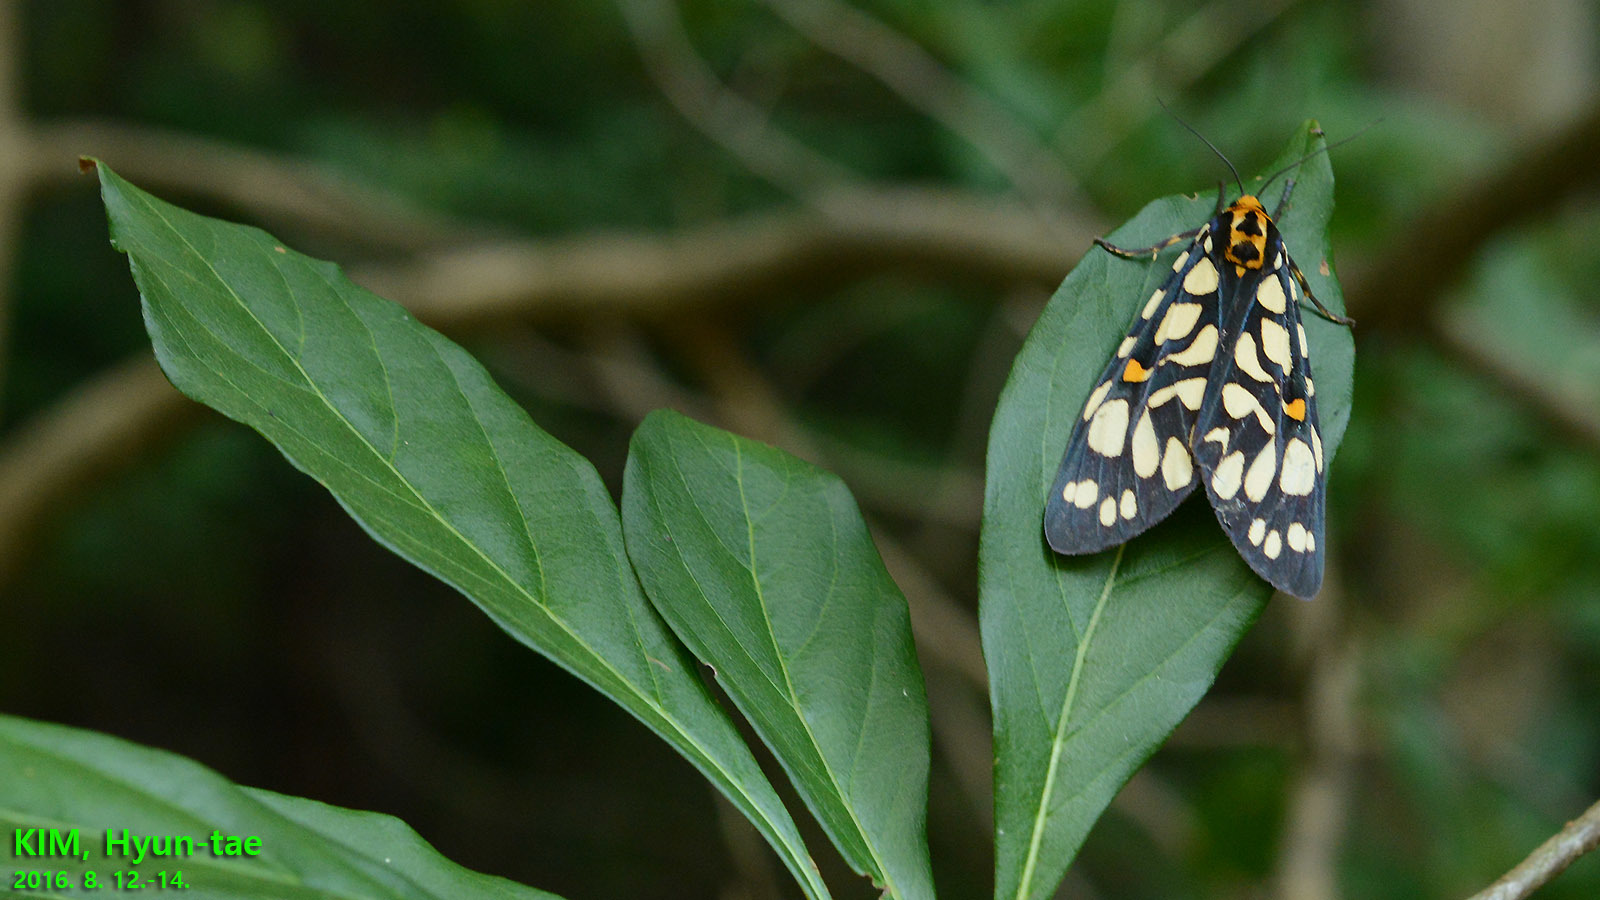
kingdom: Animalia
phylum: Arthropoda
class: Insecta
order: Lepidoptera
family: Erebidae
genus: Aglaomorpha
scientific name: Aglaomorpha histrio
